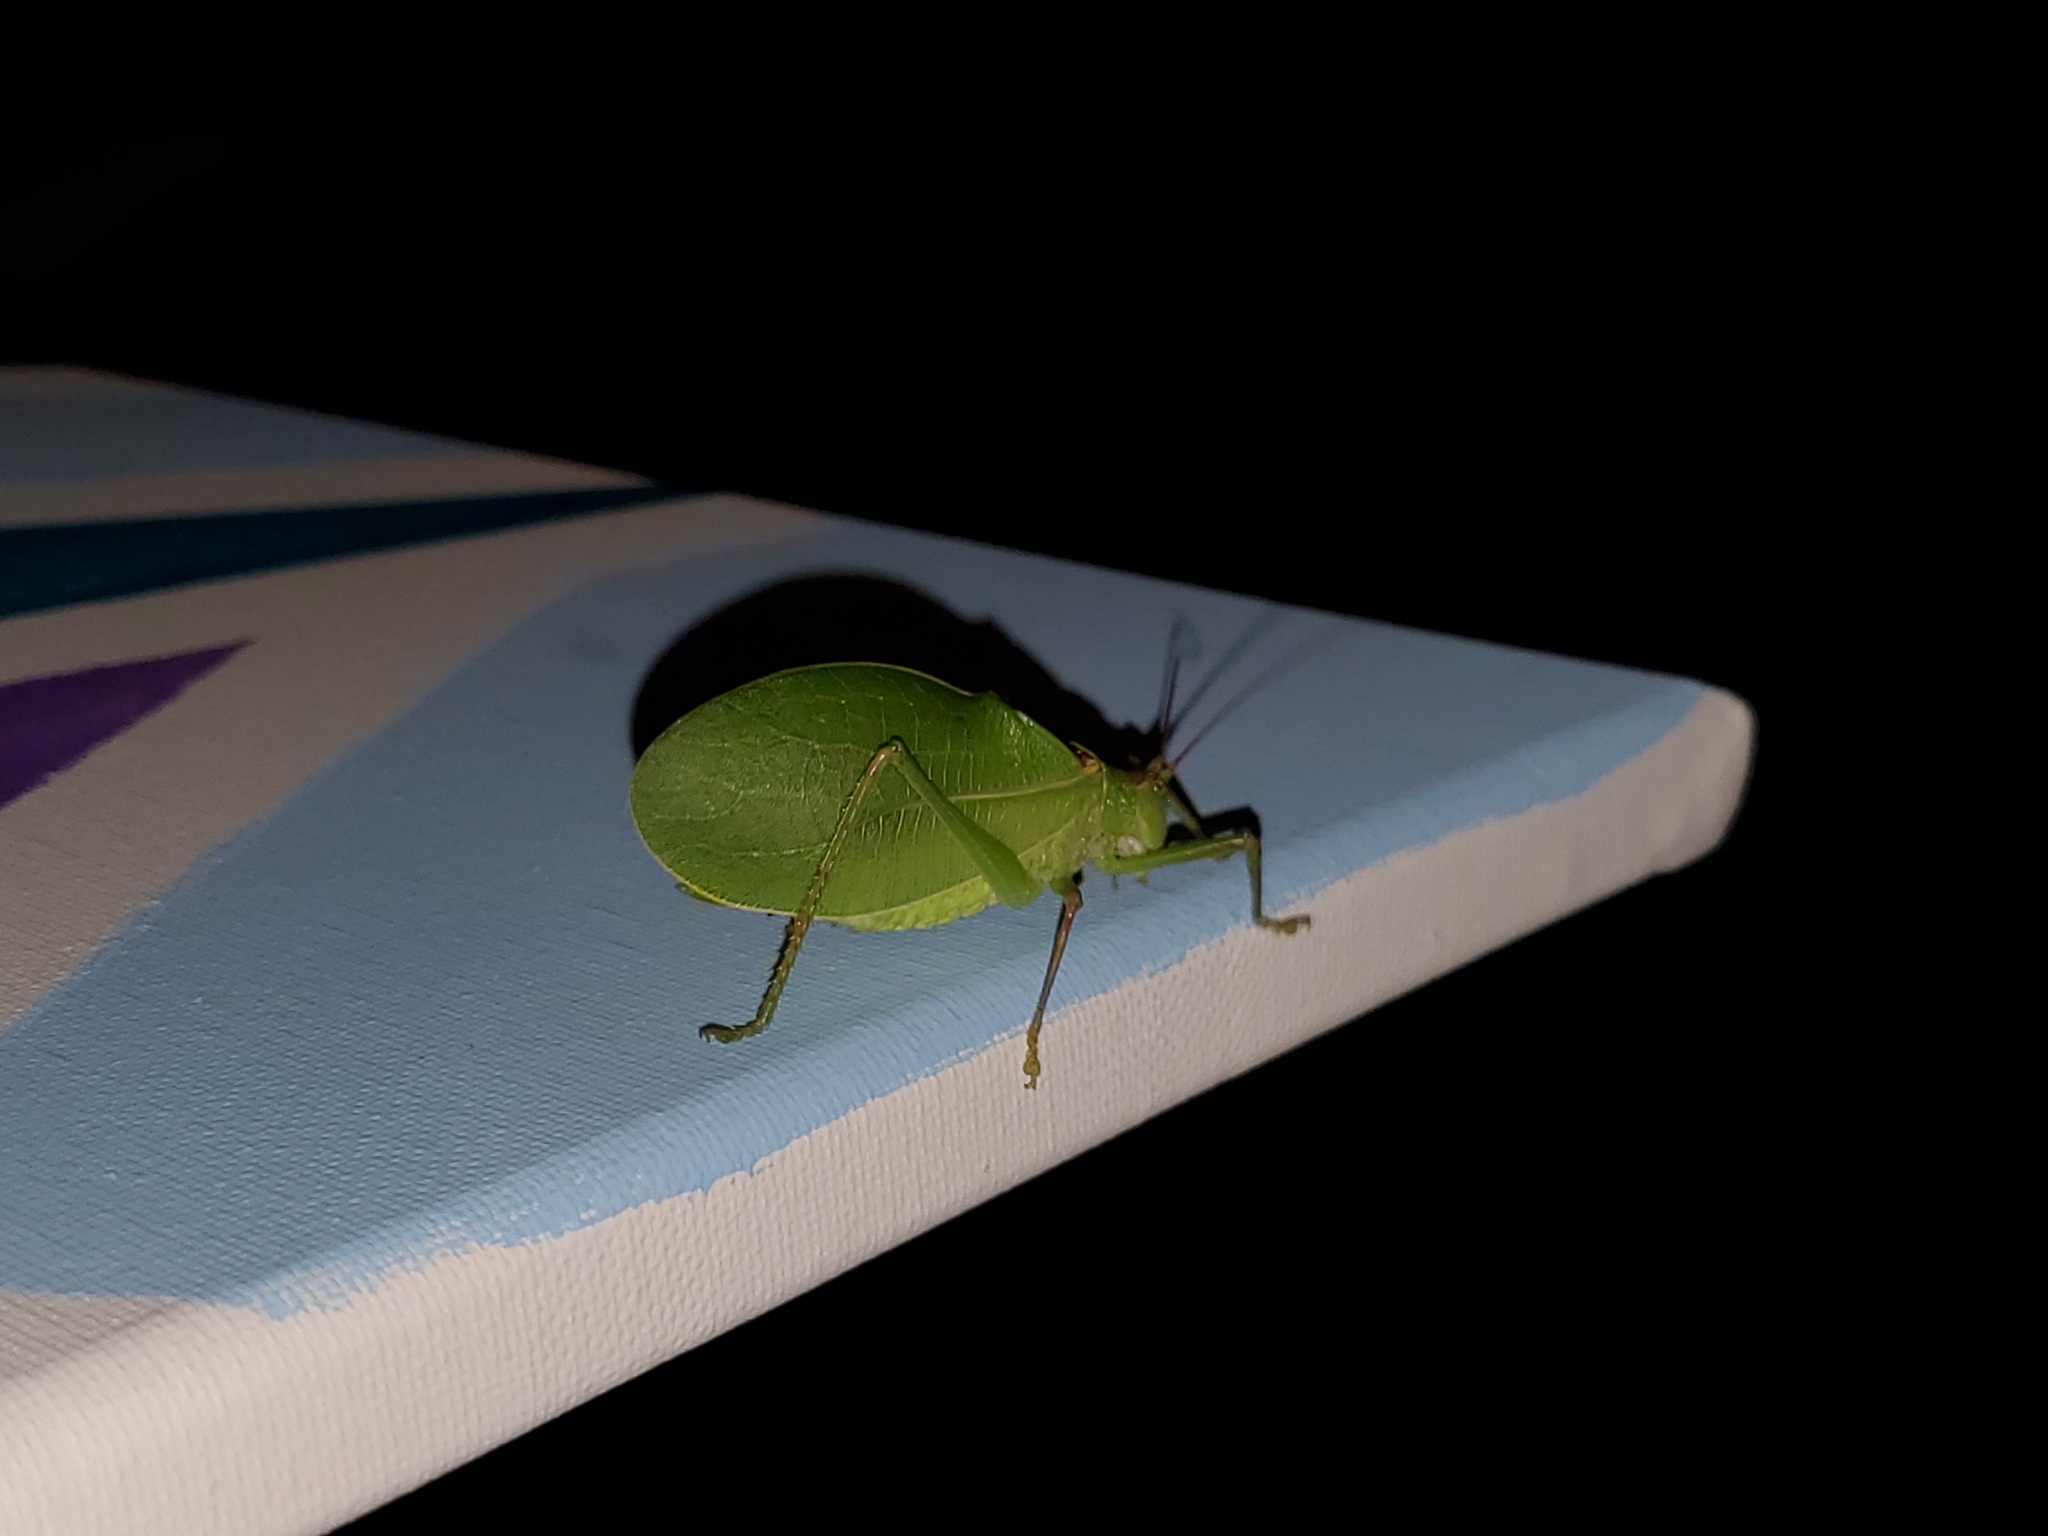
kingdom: Animalia
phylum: Arthropoda
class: Insecta
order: Orthoptera
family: Tettigoniidae
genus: Pterophylla
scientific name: Pterophylla camellifolia
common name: Common true katydid
